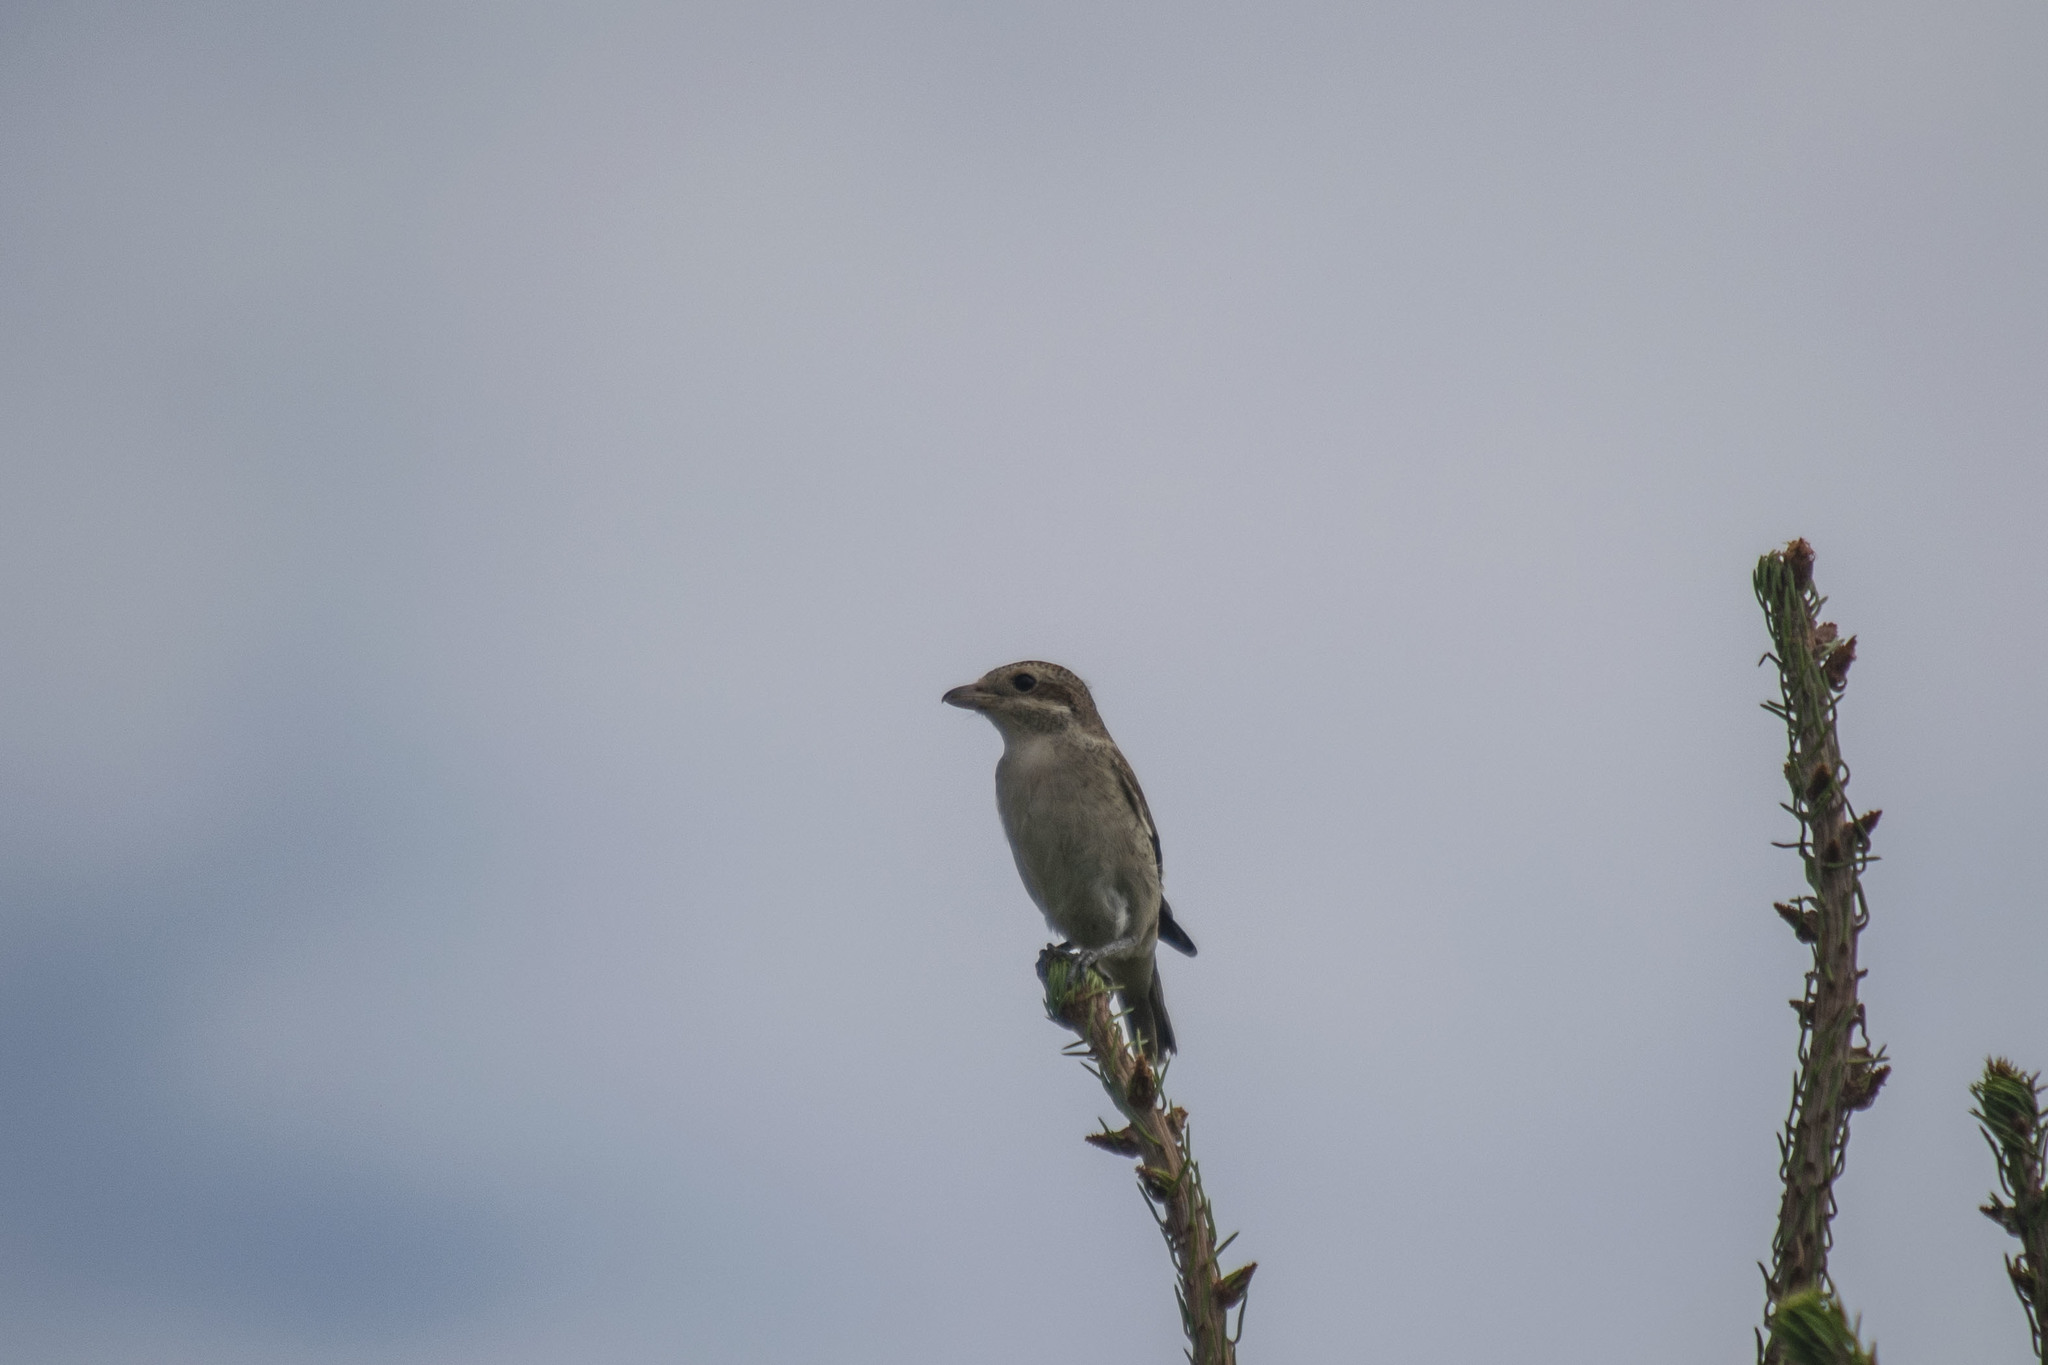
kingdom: Animalia
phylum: Chordata
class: Aves
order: Passeriformes
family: Laniidae
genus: Lanius
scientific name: Lanius collurio
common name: Red-backed shrike
